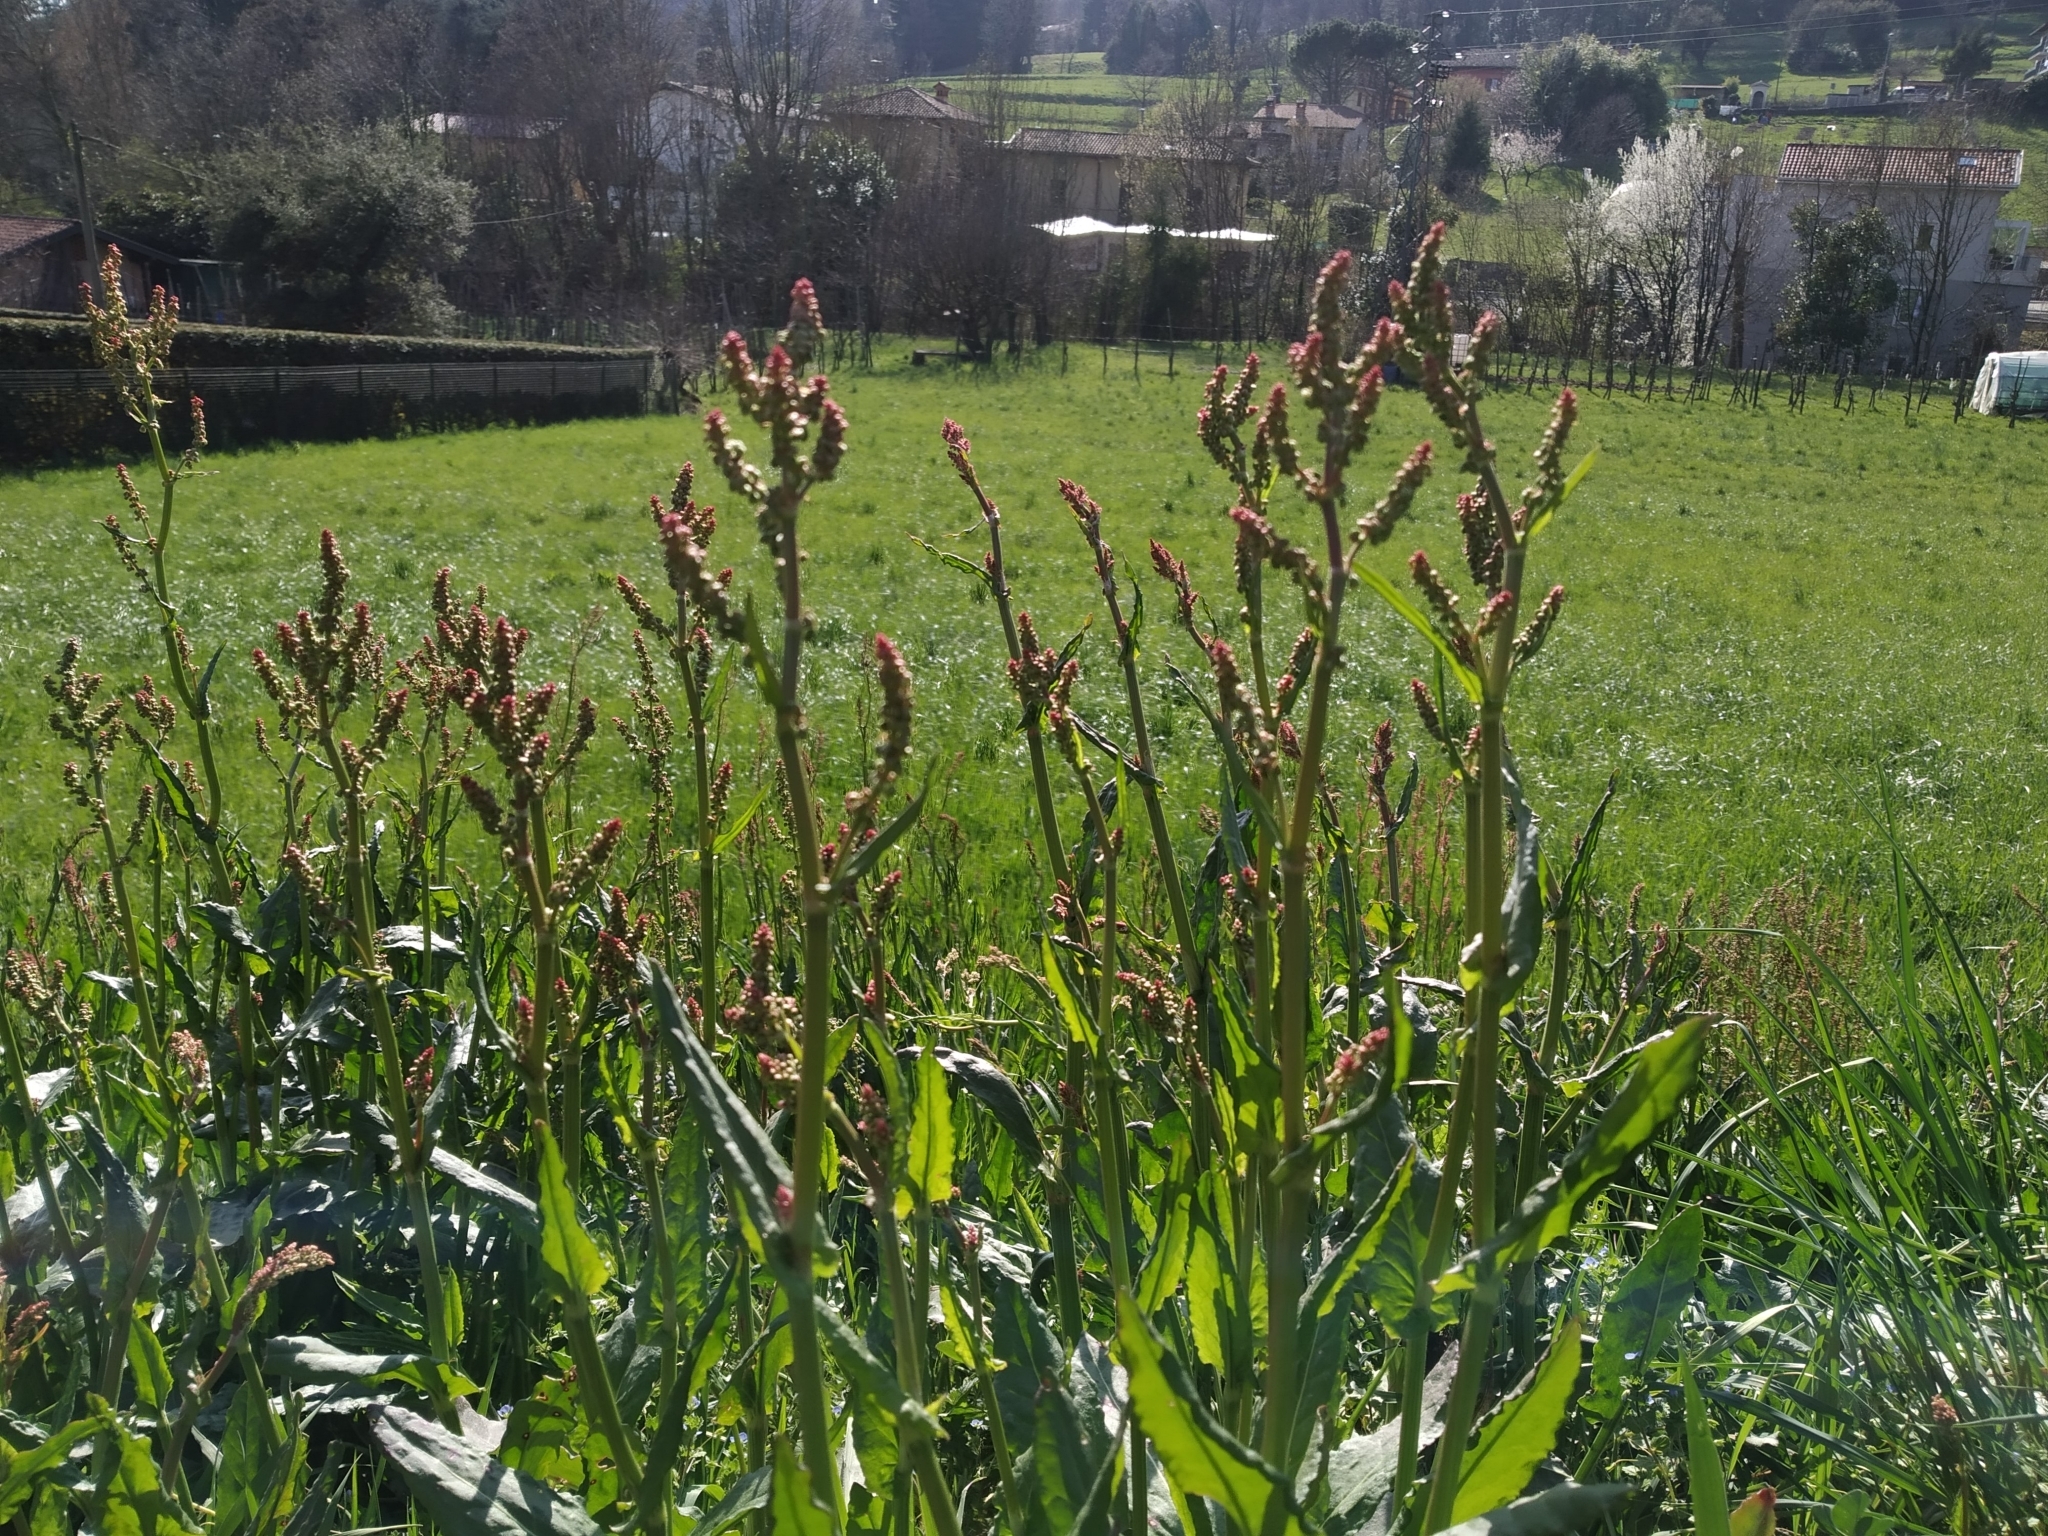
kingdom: Plantae
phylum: Tracheophyta
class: Magnoliopsida
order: Caryophyllales
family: Polygonaceae
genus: Rumex
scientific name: Rumex acetosa
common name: Garden sorrel
